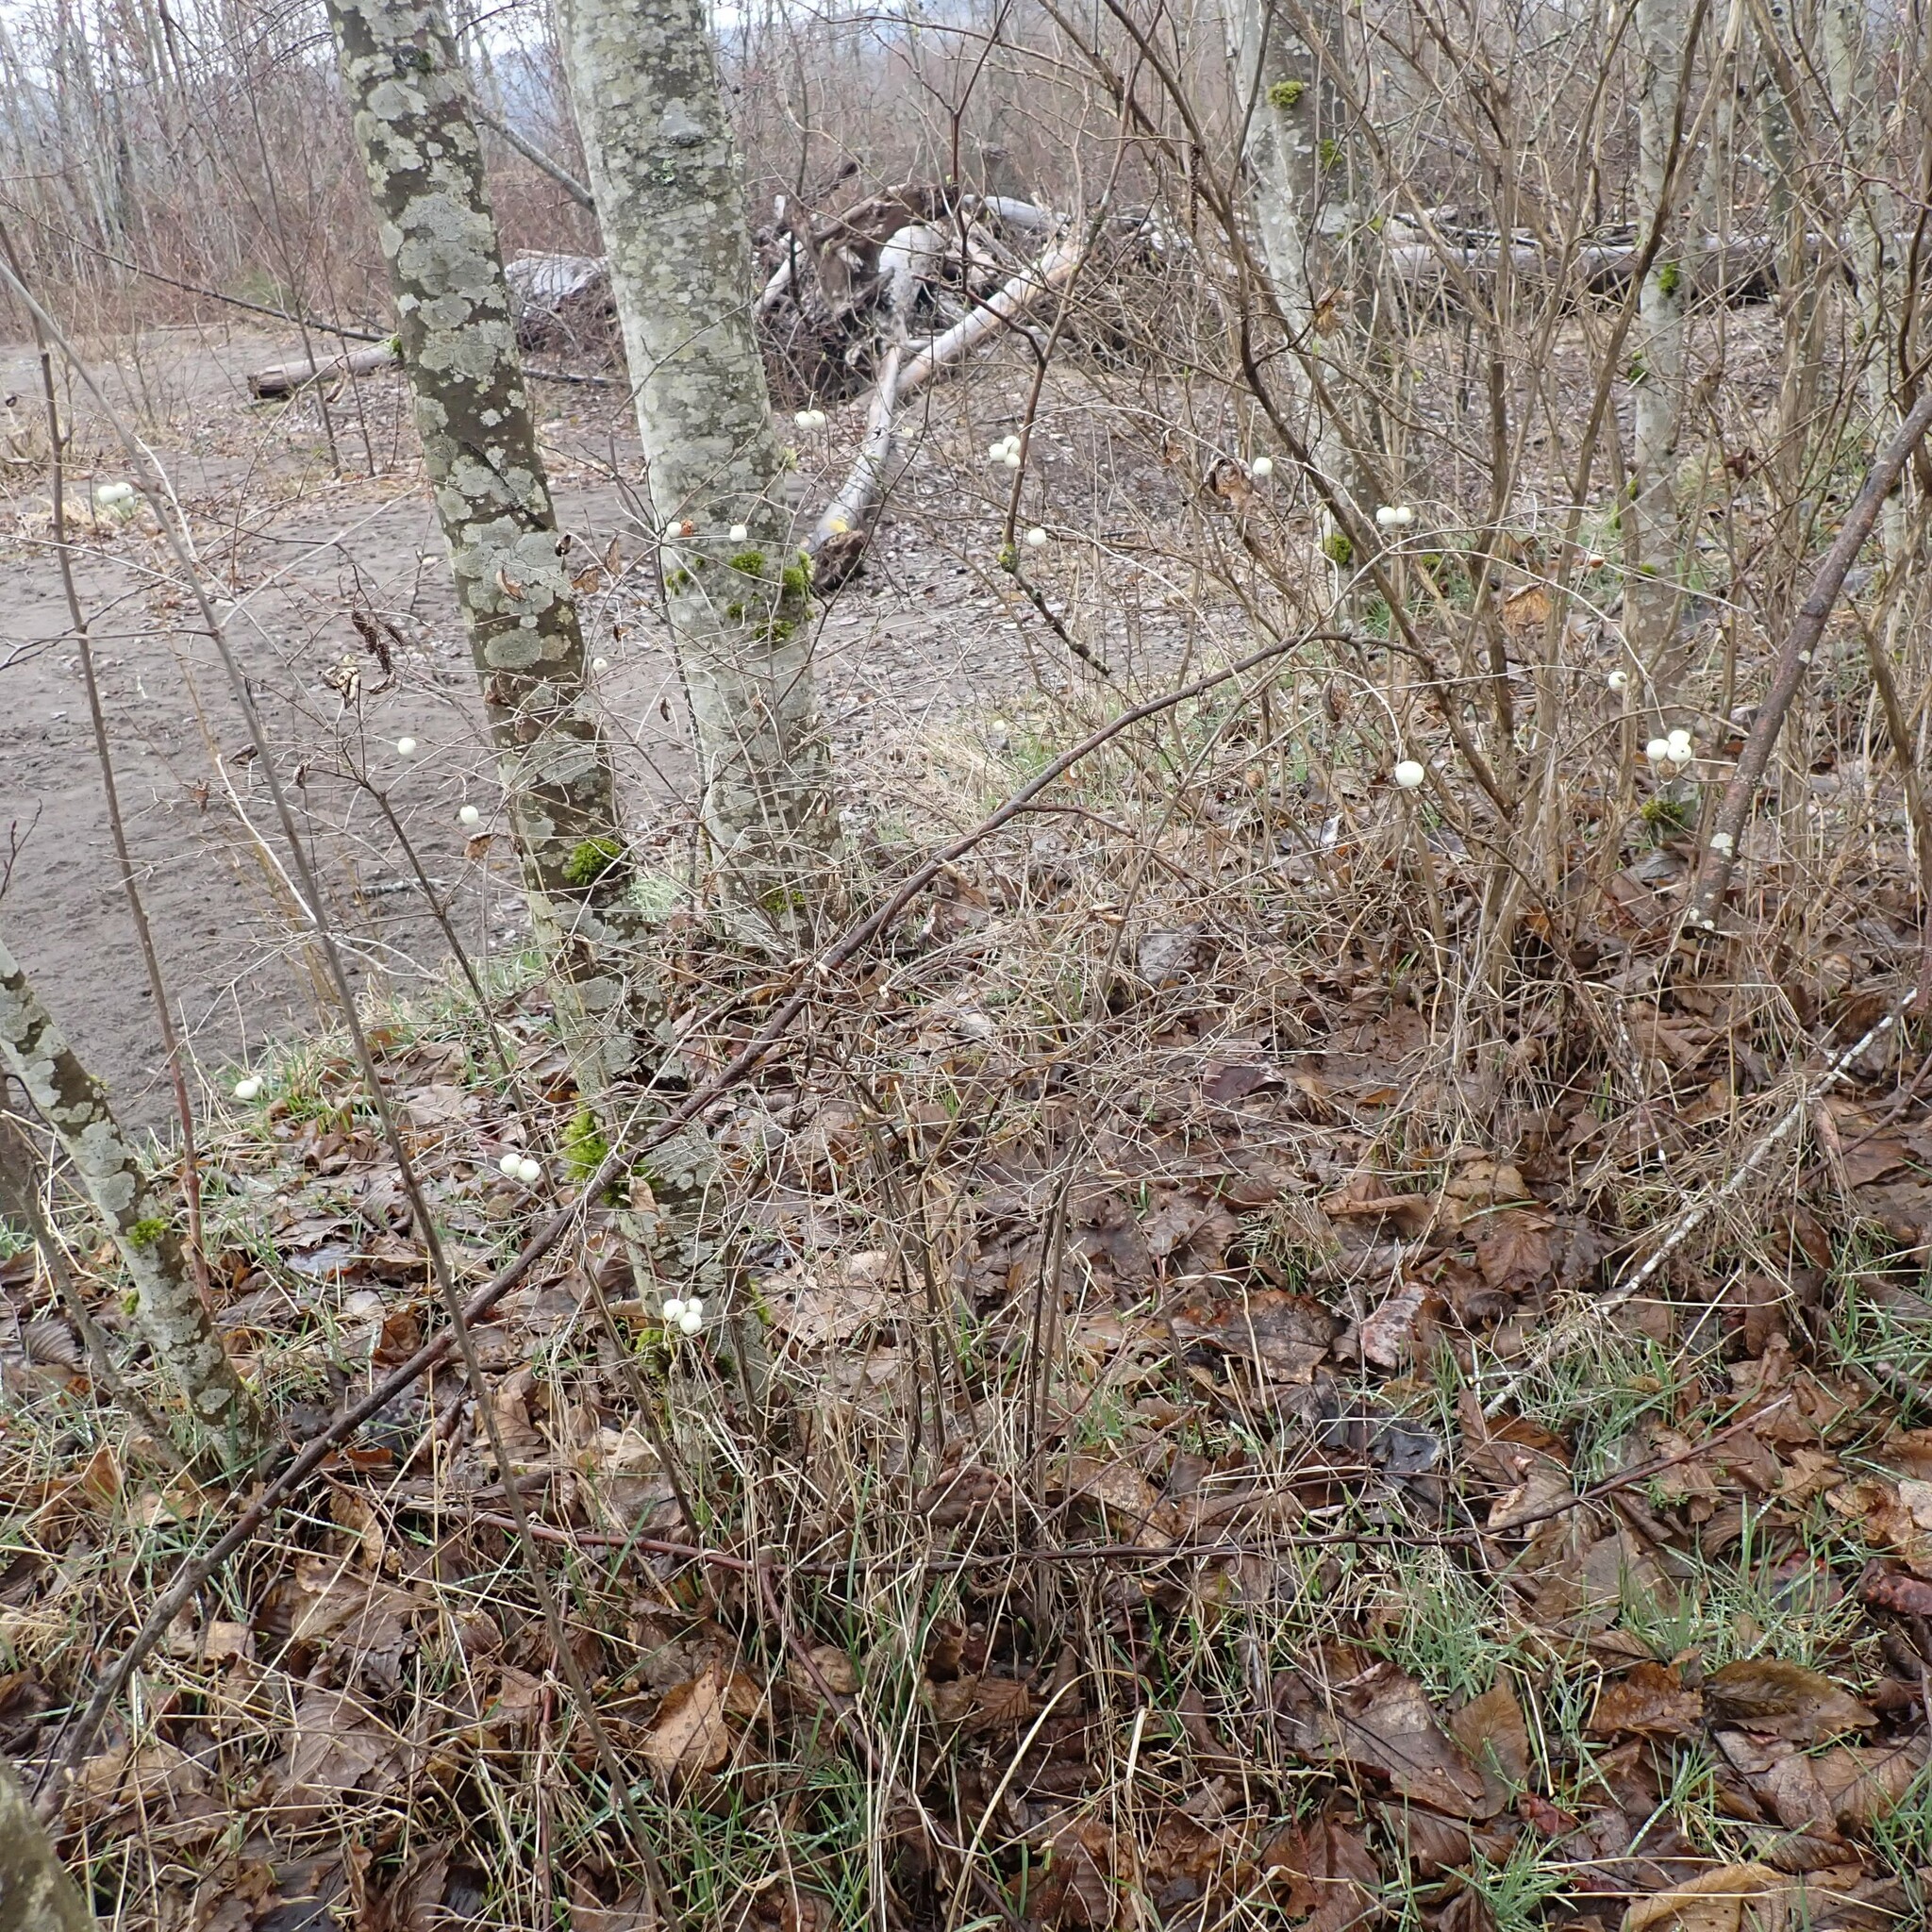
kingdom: Plantae
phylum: Tracheophyta
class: Magnoliopsida
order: Dipsacales
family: Caprifoliaceae
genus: Symphoricarpos
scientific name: Symphoricarpos albus
